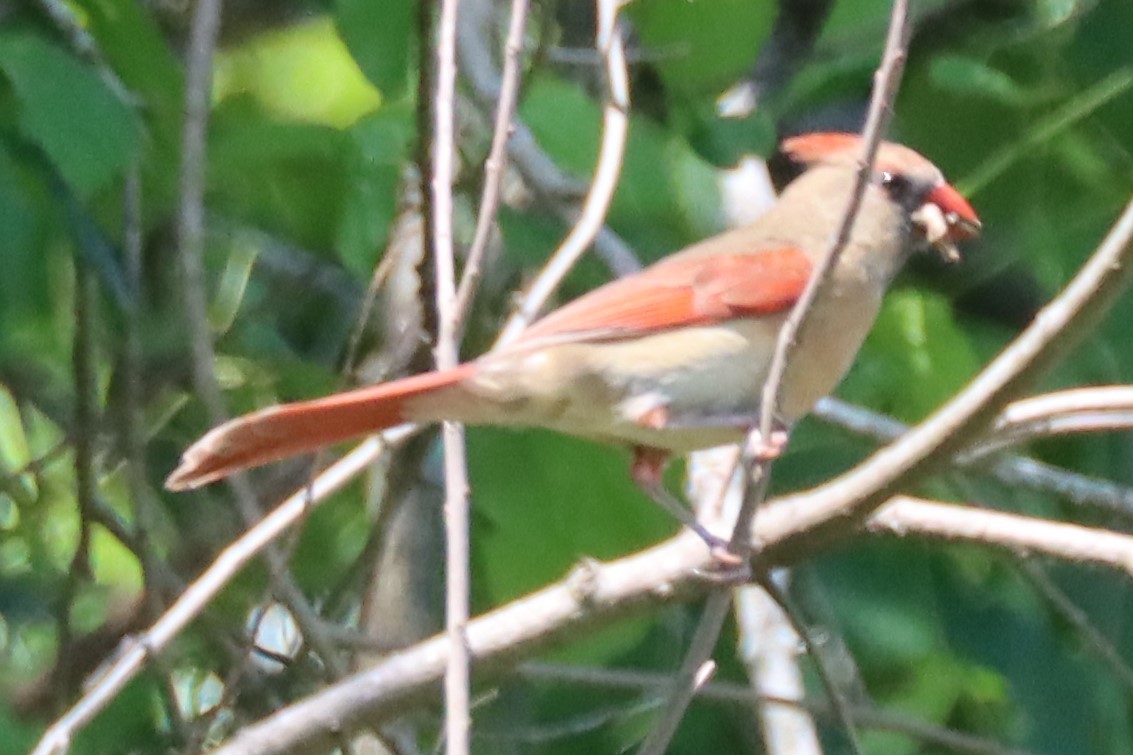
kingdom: Animalia
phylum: Chordata
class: Aves
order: Passeriformes
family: Cardinalidae
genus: Cardinalis
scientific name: Cardinalis cardinalis
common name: Northern cardinal
